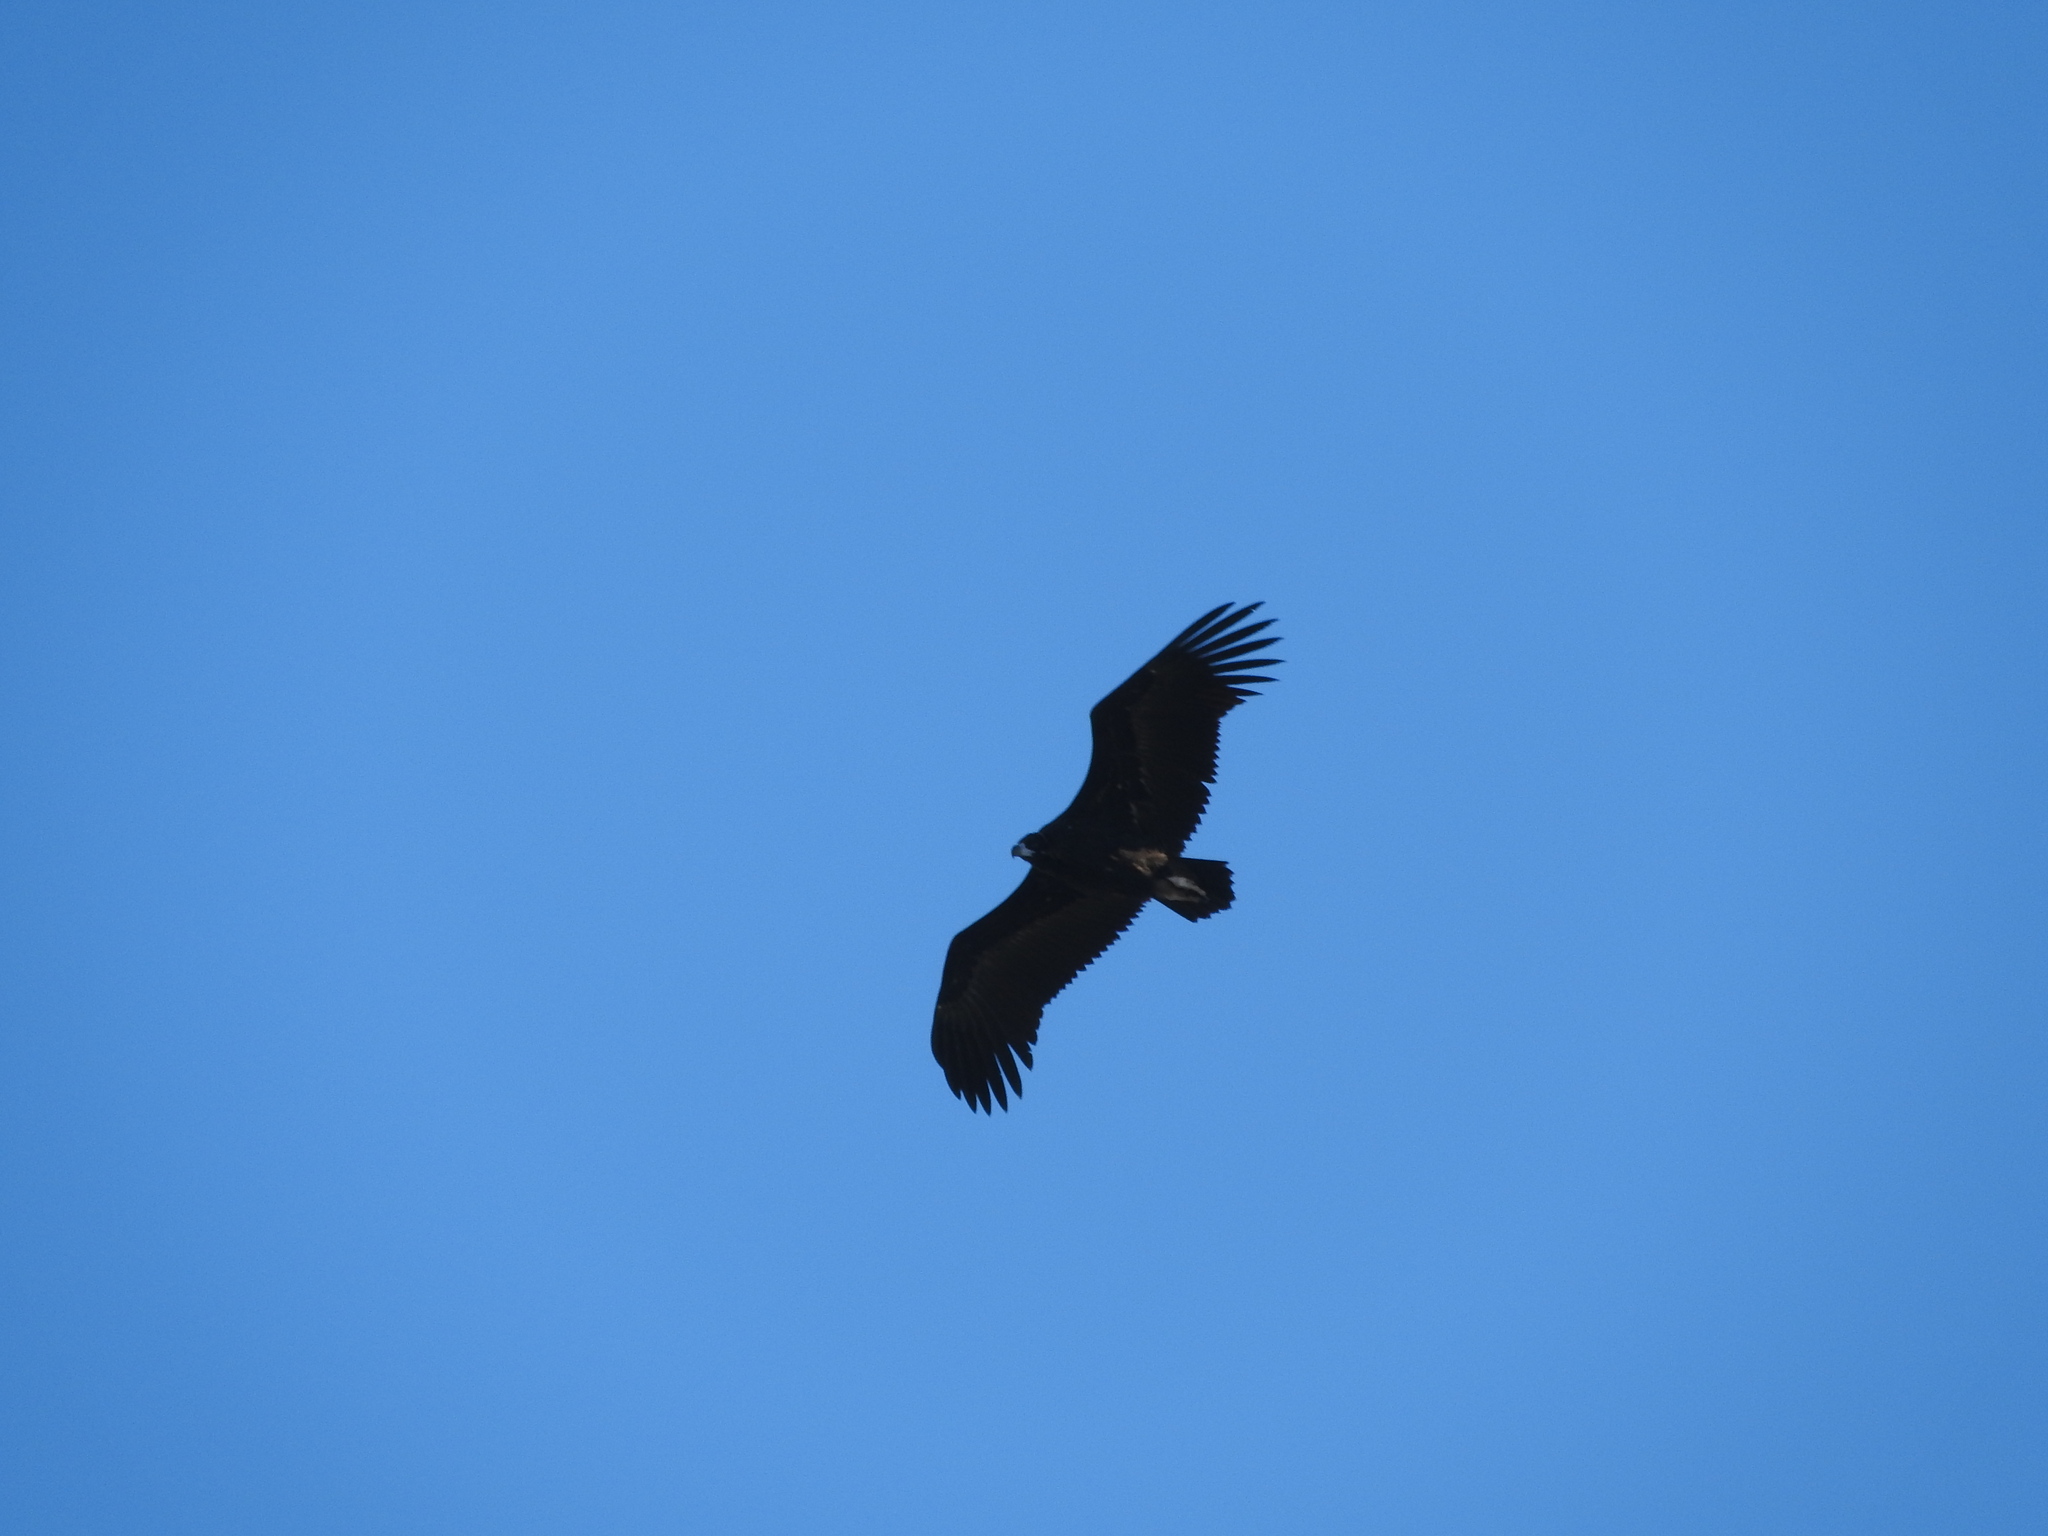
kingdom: Animalia
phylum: Chordata
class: Aves
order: Accipitriformes
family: Accipitridae
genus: Aegypius
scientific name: Aegypius monachus
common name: Cinereous vulture
